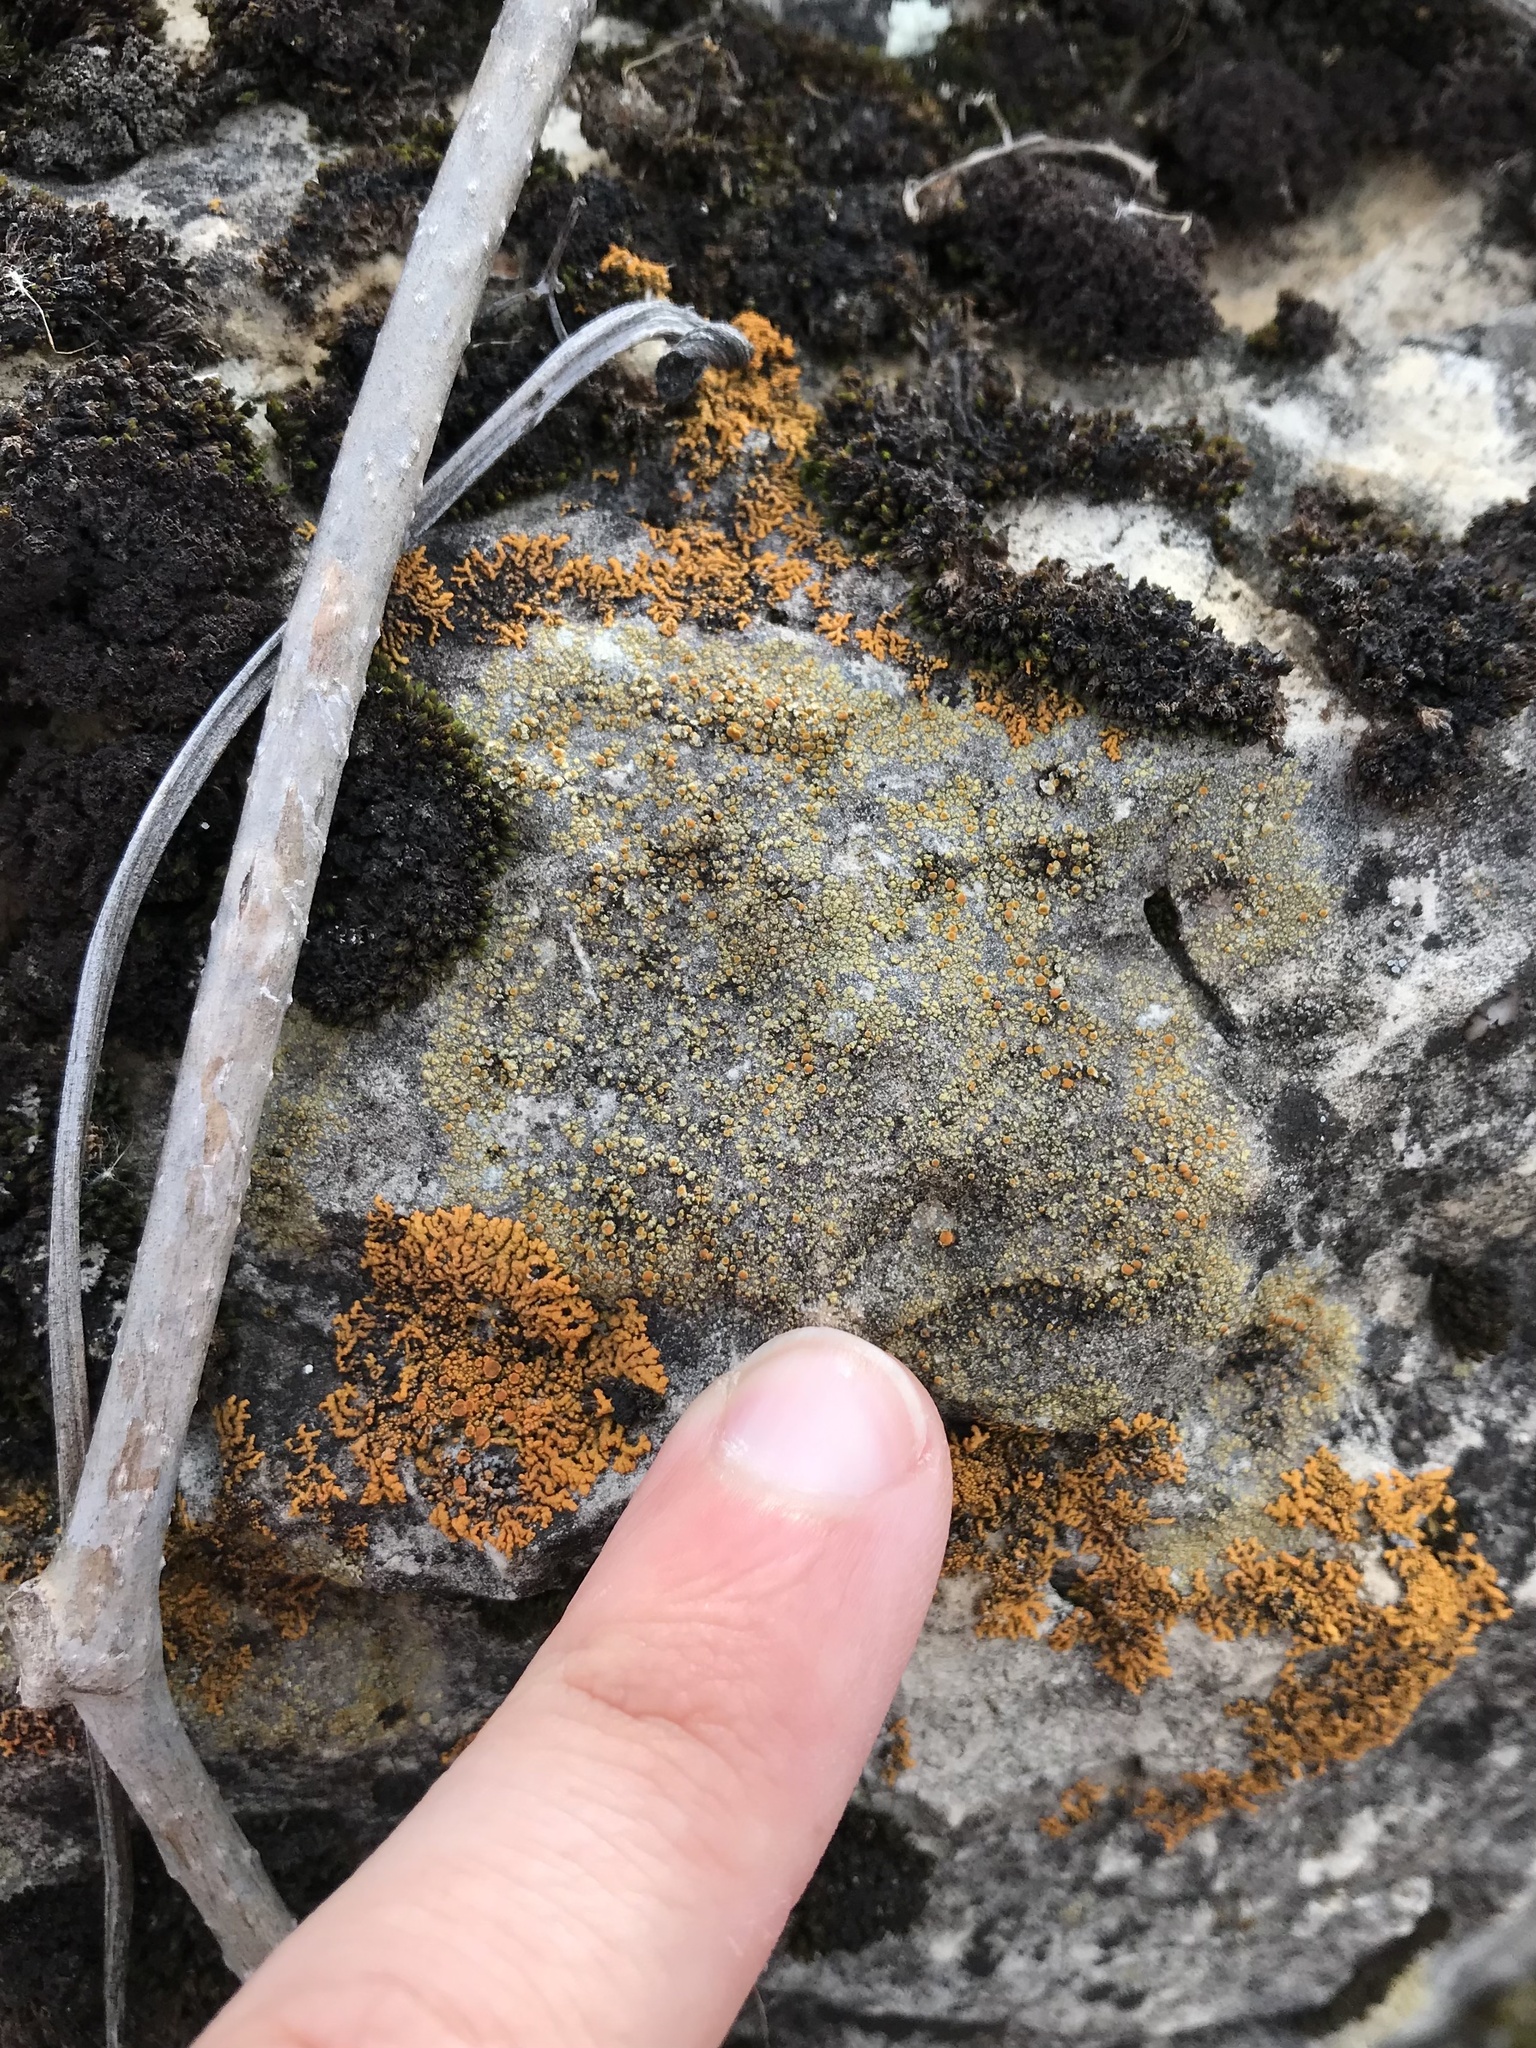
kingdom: Fungi
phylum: Ascomycota
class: Lecanoromycetes
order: Teloschistales
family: Teloschistaceae
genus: Gyalolechia
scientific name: Gyalolechia flavovirescens
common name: Sulphur firedot
